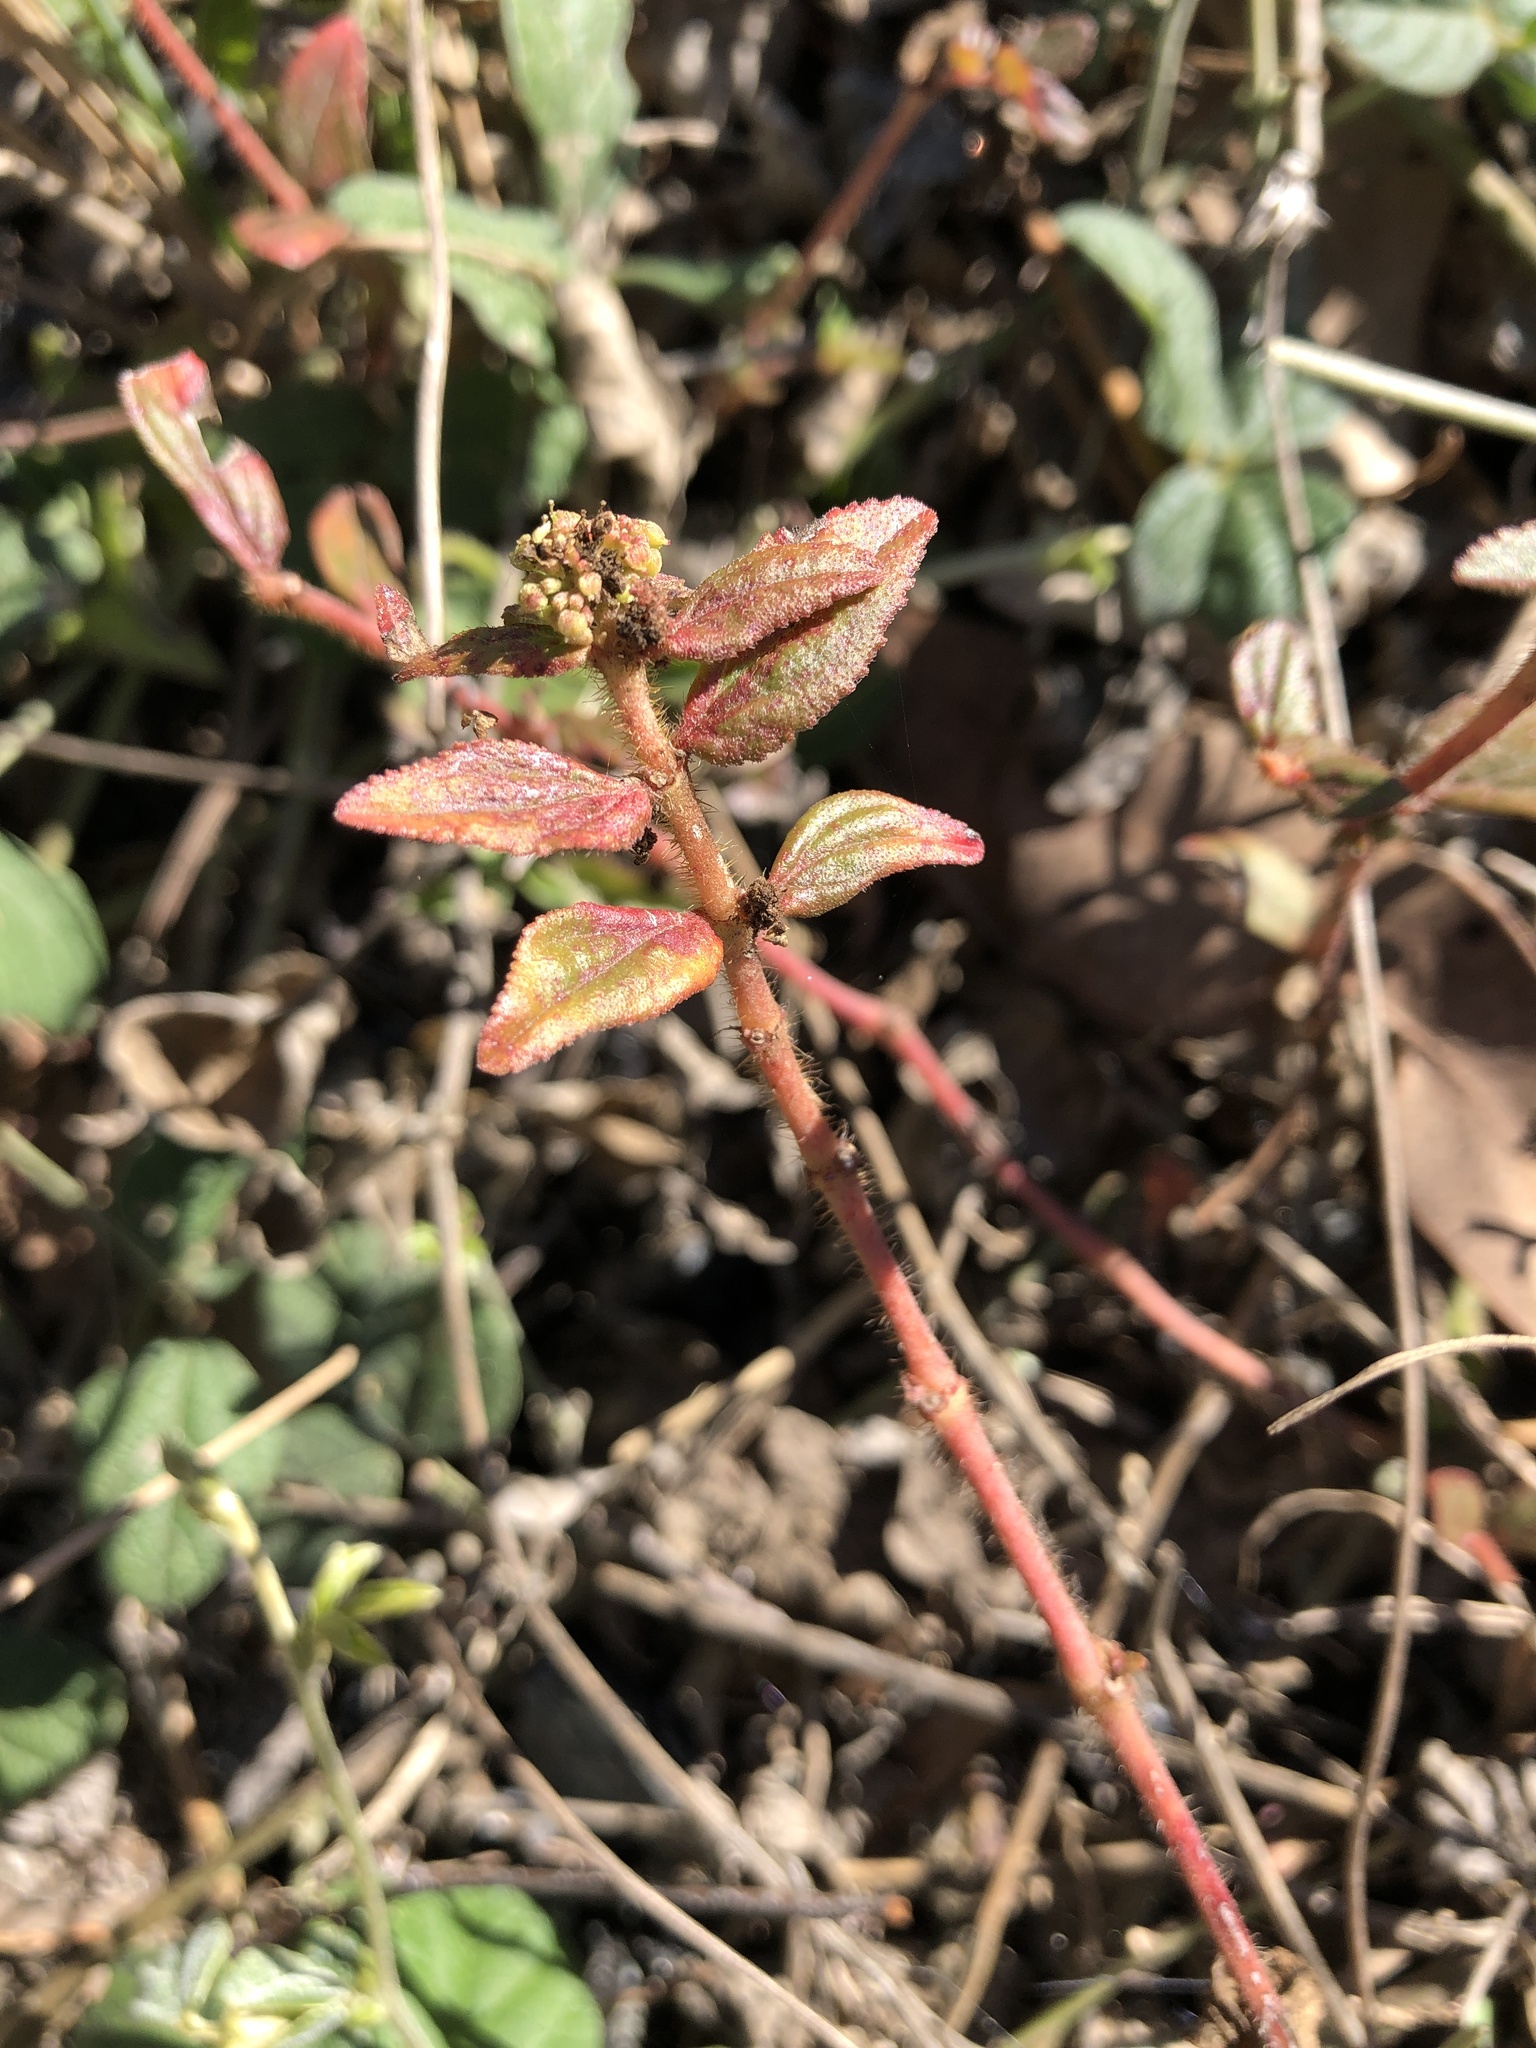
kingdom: Plantae
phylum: Tracheophyta
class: Magnoliopsida
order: Malpighiales
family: Euphorbiaceae
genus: Euphorbia
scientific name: Euphorbia hirta
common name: Pillpod sandmat
